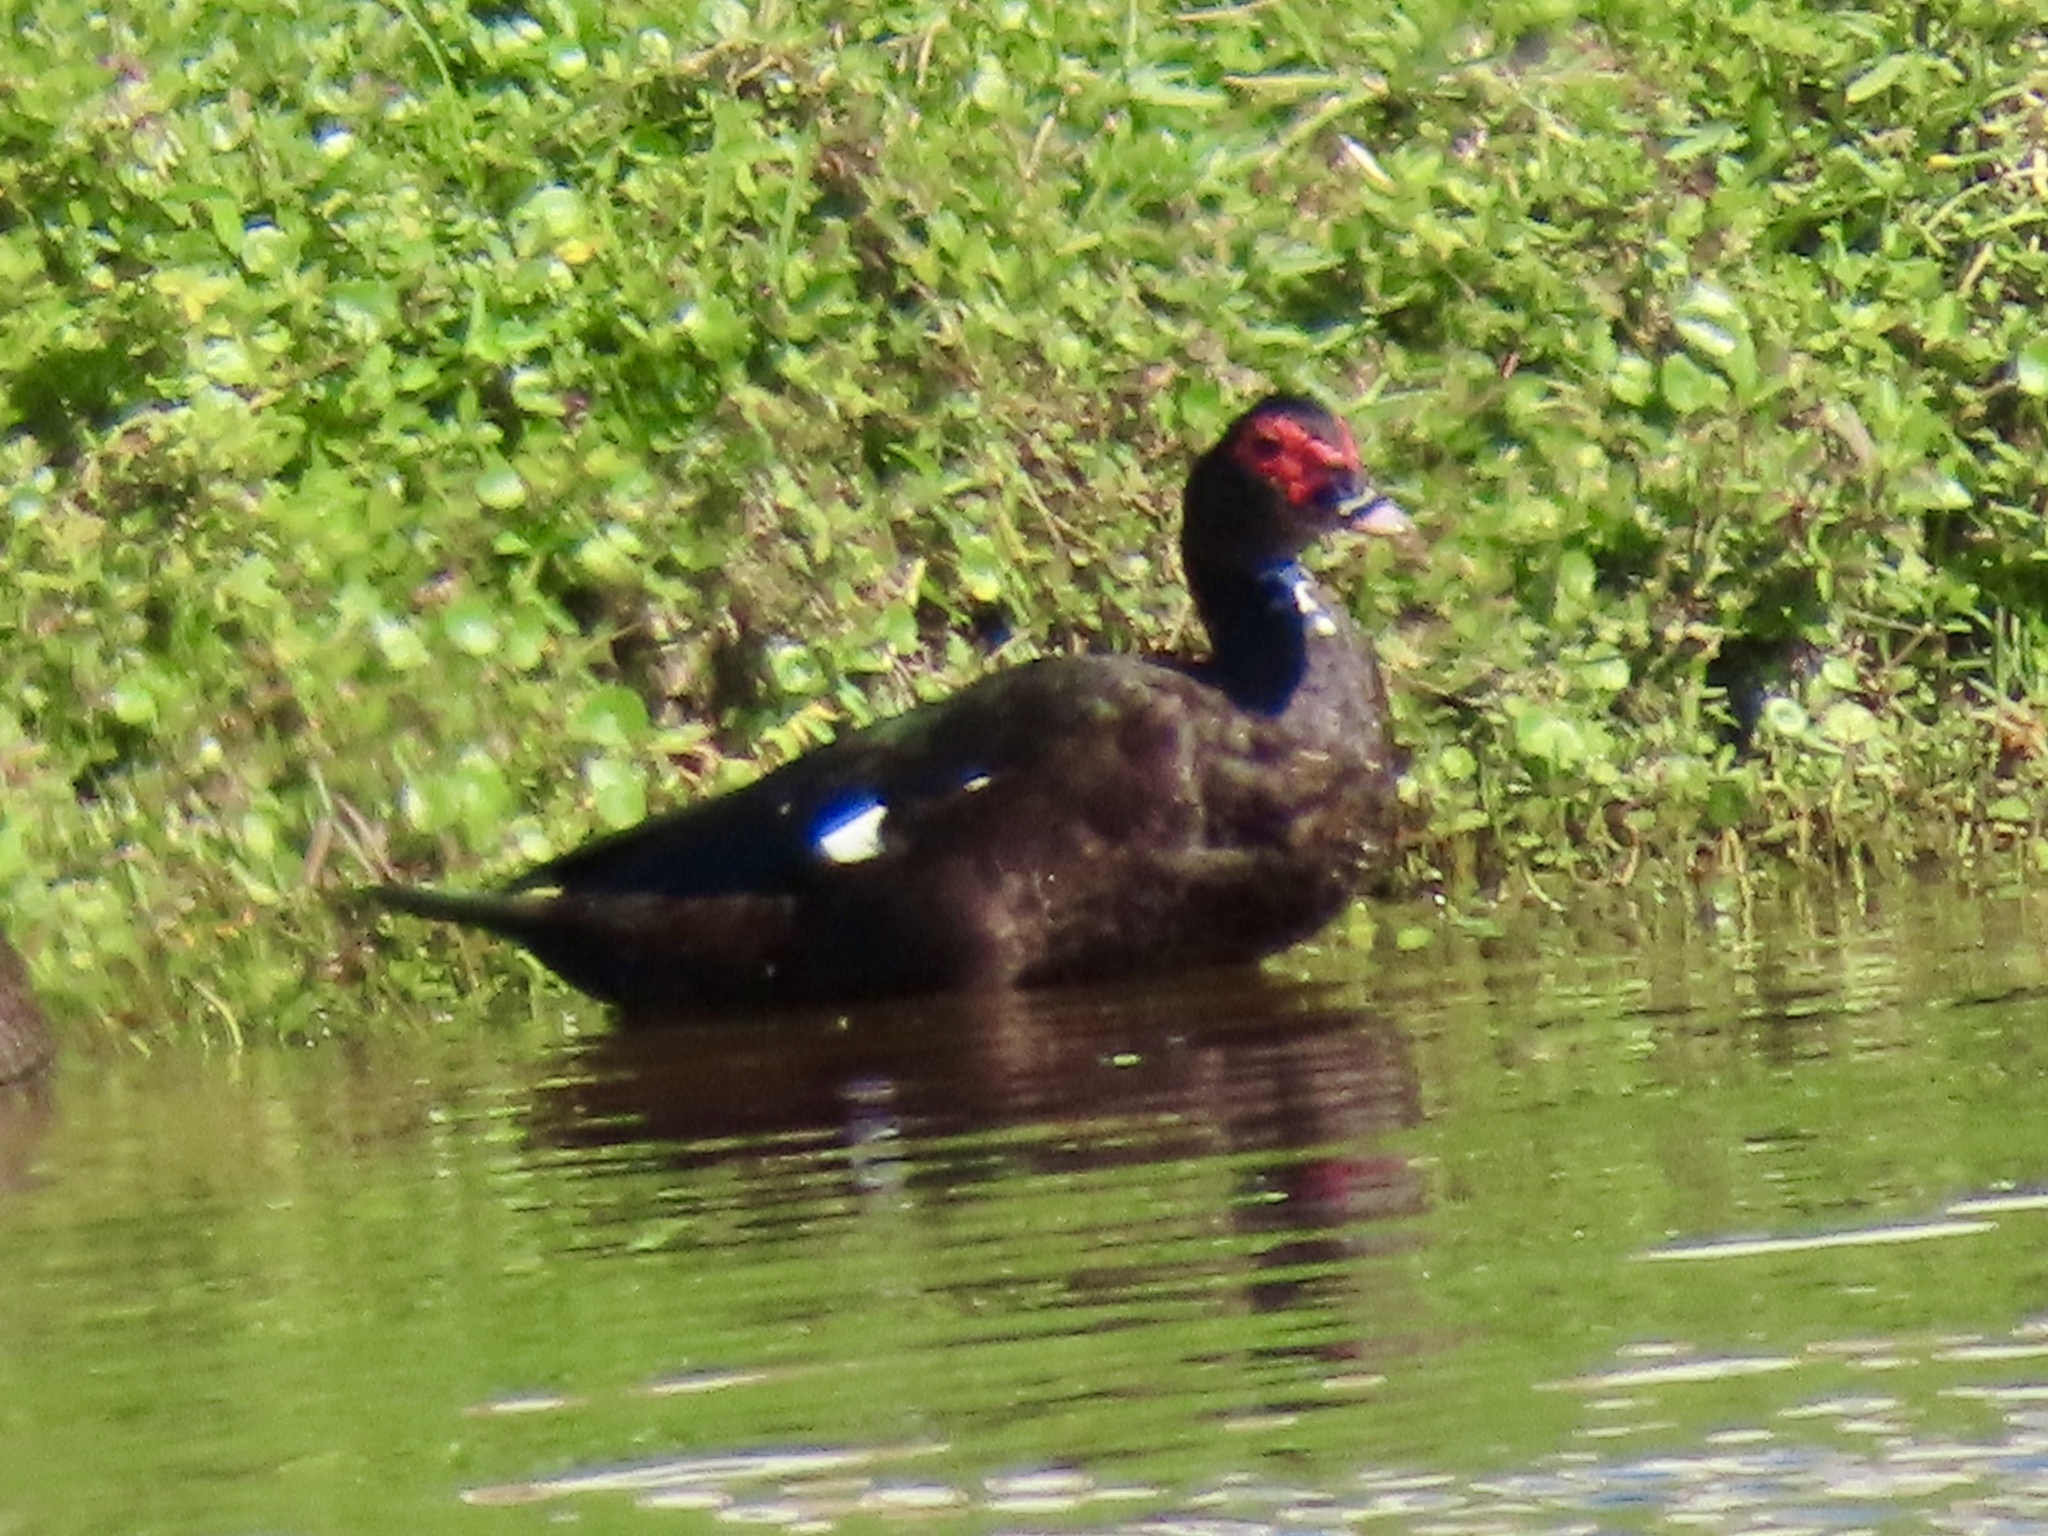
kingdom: Animalia
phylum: Chordata
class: Aves
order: Anseriformes
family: Anatidae
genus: Cairina
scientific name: Cairina moschata
